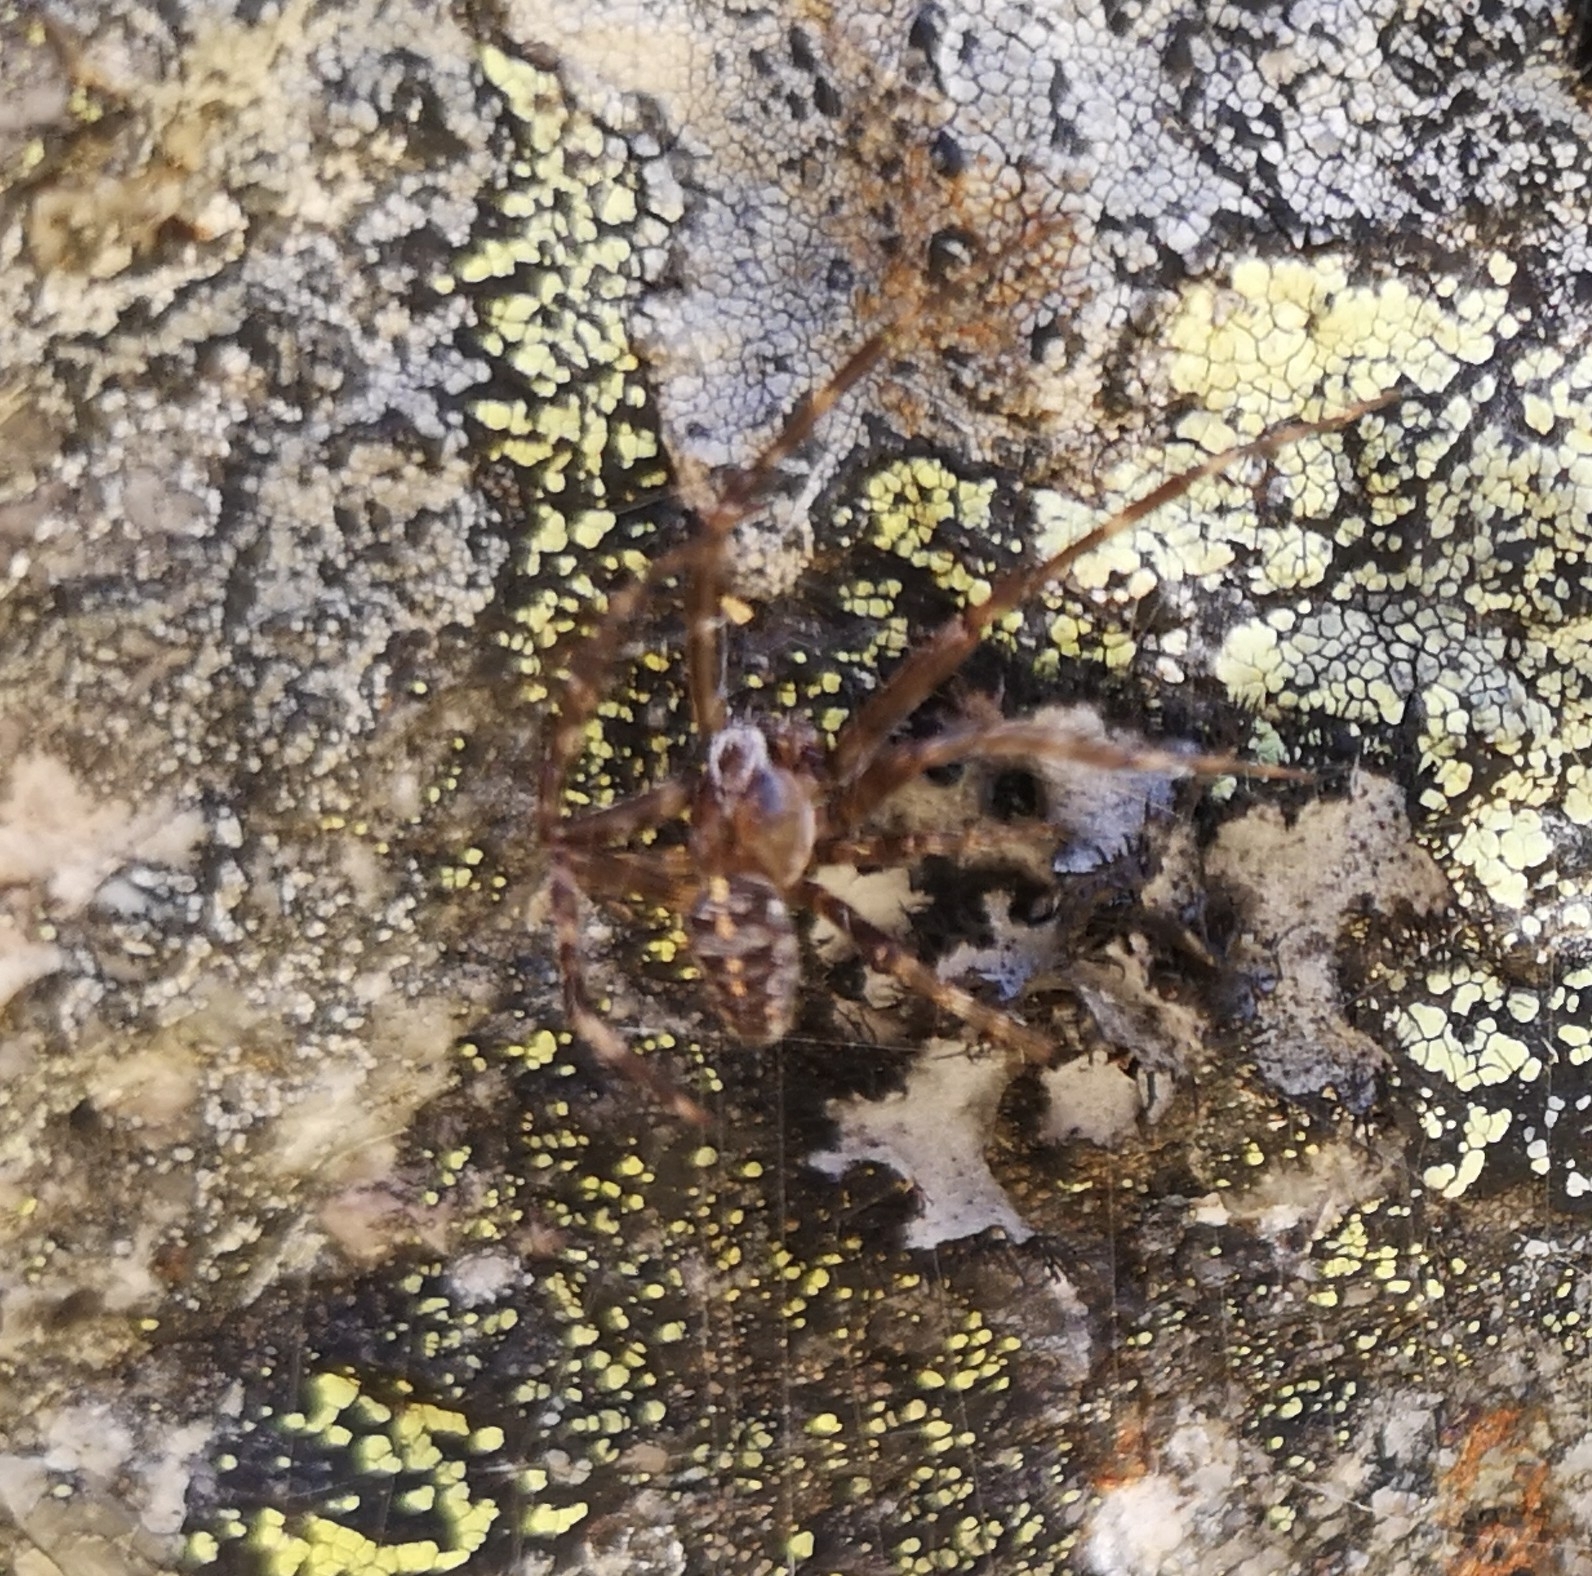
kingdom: Animalia
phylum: Arthropoda
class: Arachnida
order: Araneae
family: Araneidae
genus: Araneus
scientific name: Araneus diadematus
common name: Cross orbweaver
